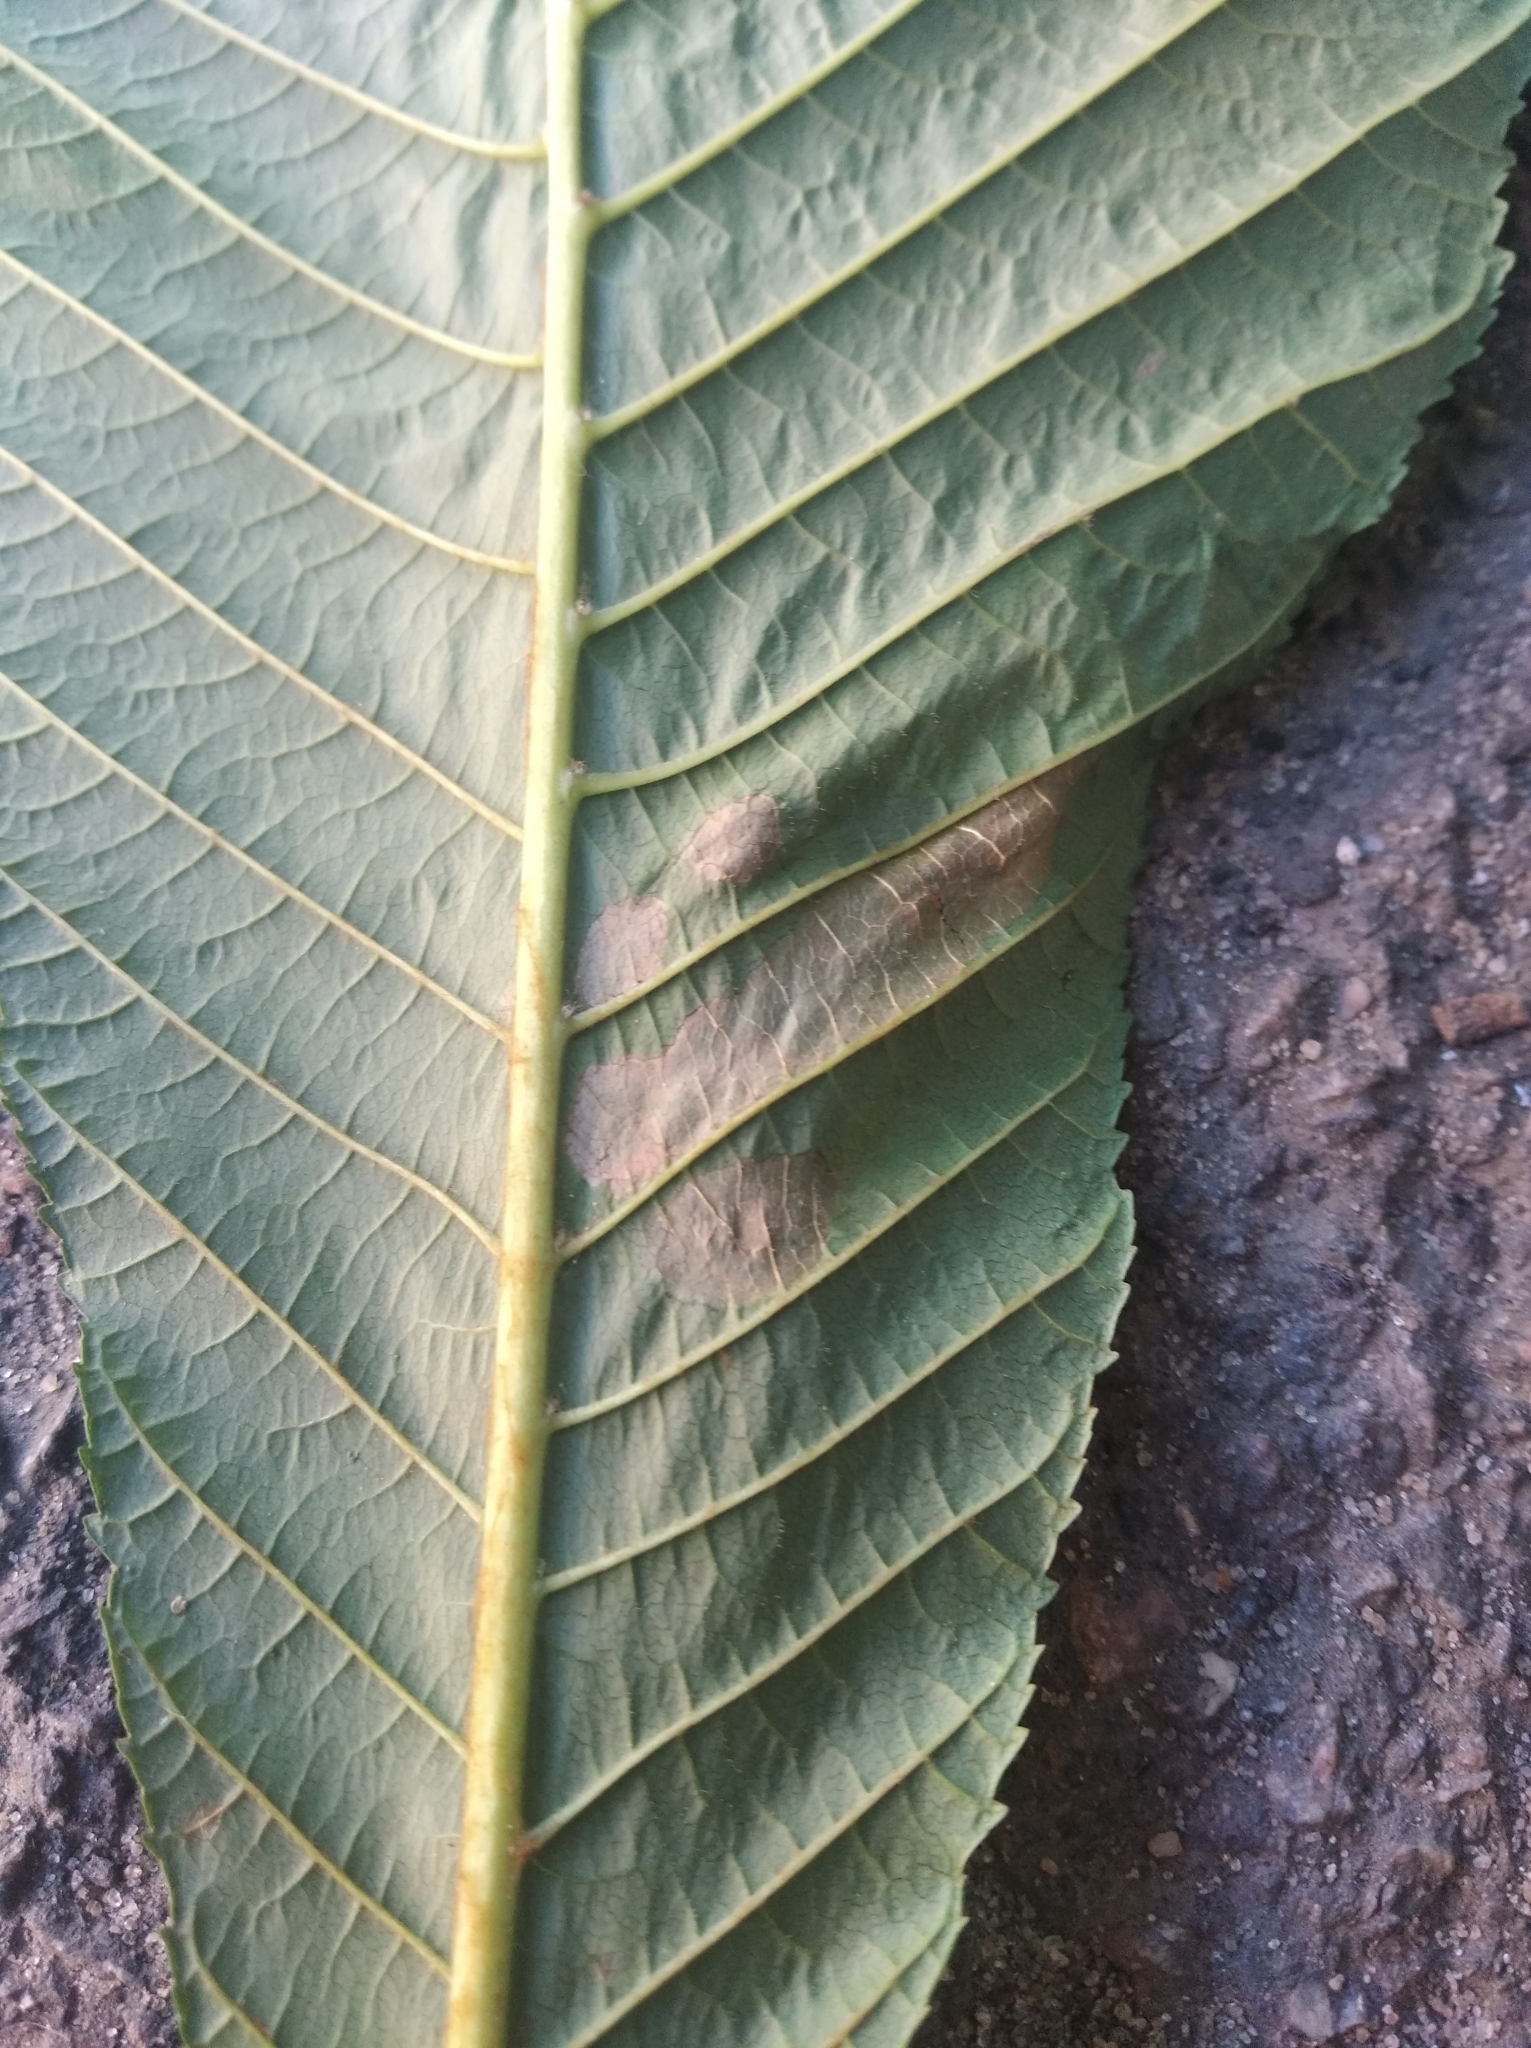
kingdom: Animalia
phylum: Arthropoda
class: Insecta
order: Lepidoptera
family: Gracillariidae
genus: Cameraria
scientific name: Cameraria ohridella
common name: Horse-chestnut leaf-miner
